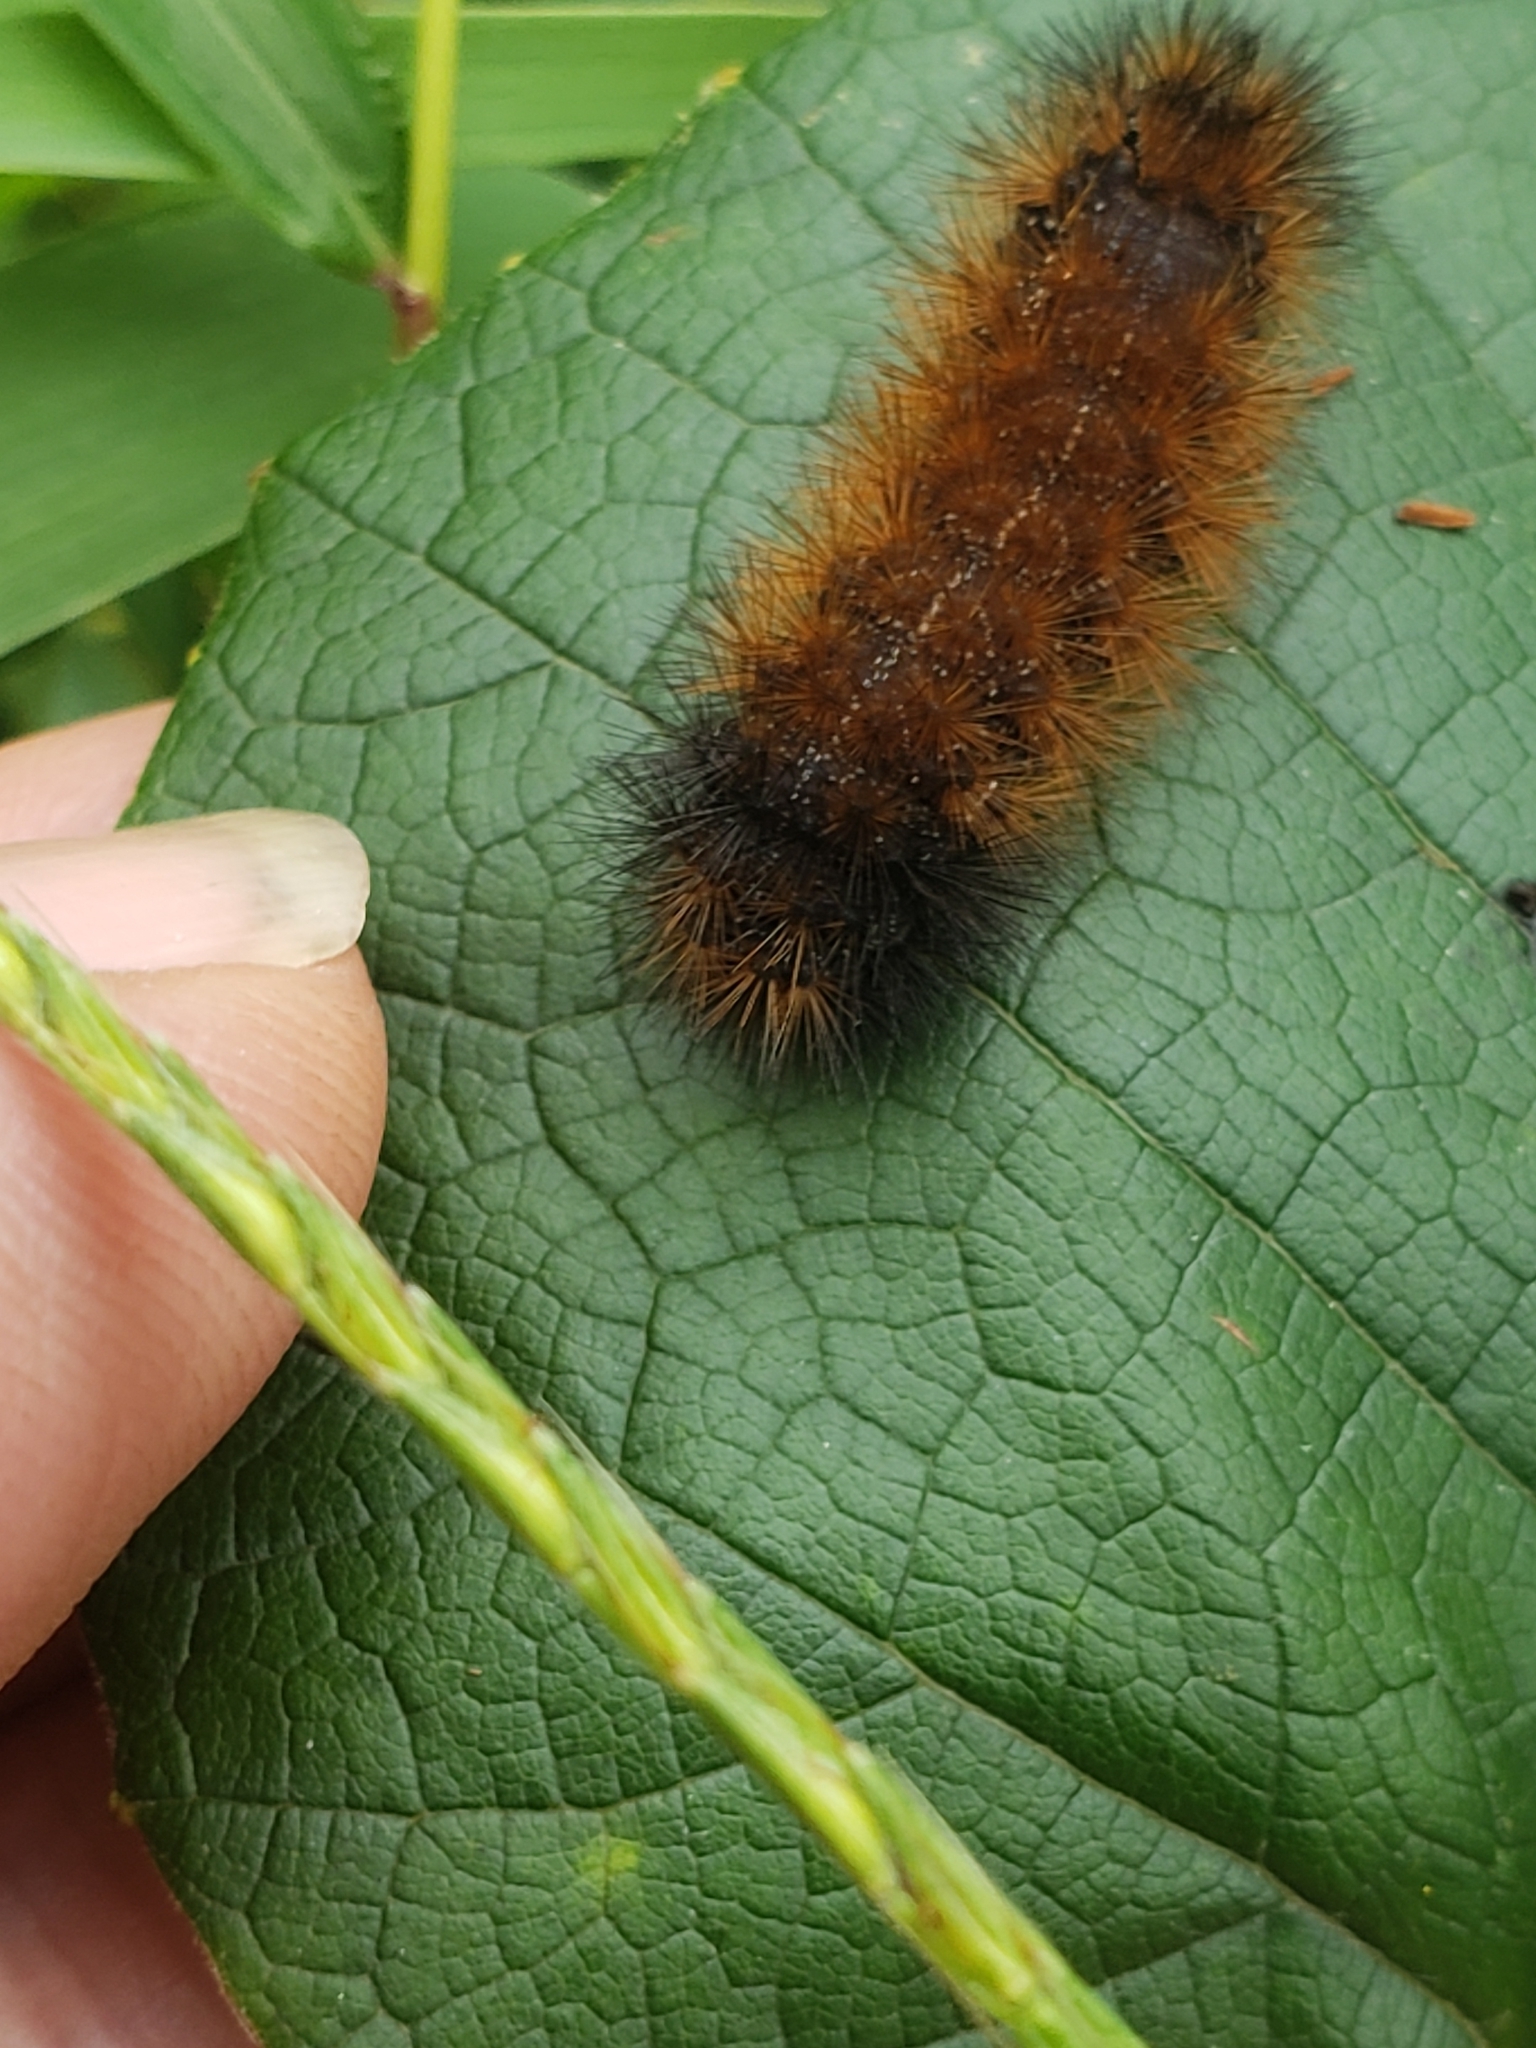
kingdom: Animalia
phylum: Arthropoda
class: Insecta
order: Lepidoptera
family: Erebidae
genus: Pyrrharctia
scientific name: Pyrrharctia isabella
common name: Isabella tiger moth
